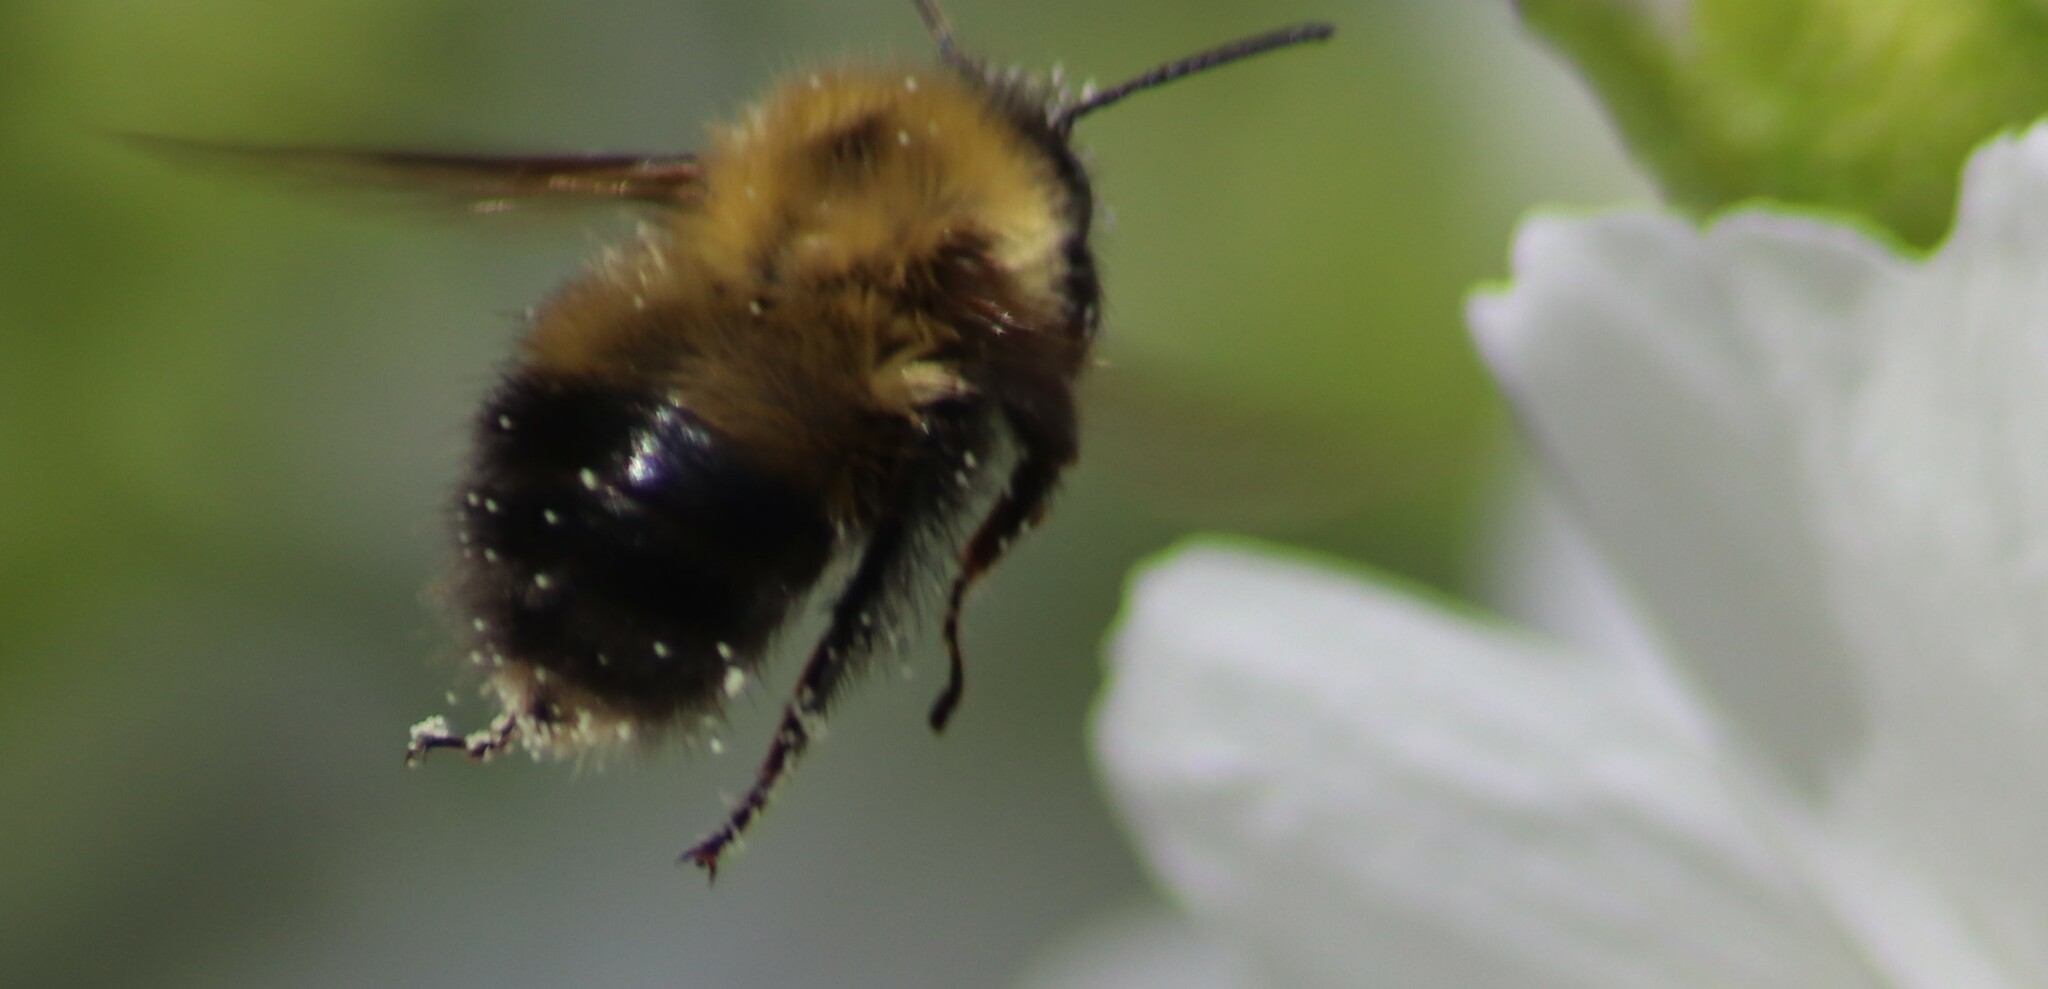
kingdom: Animalia
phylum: Arthropoda
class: Insecta
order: Hymenoptera
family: Apidae
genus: Bombus
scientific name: Bombus perplexus
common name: Confusing bumble bee
